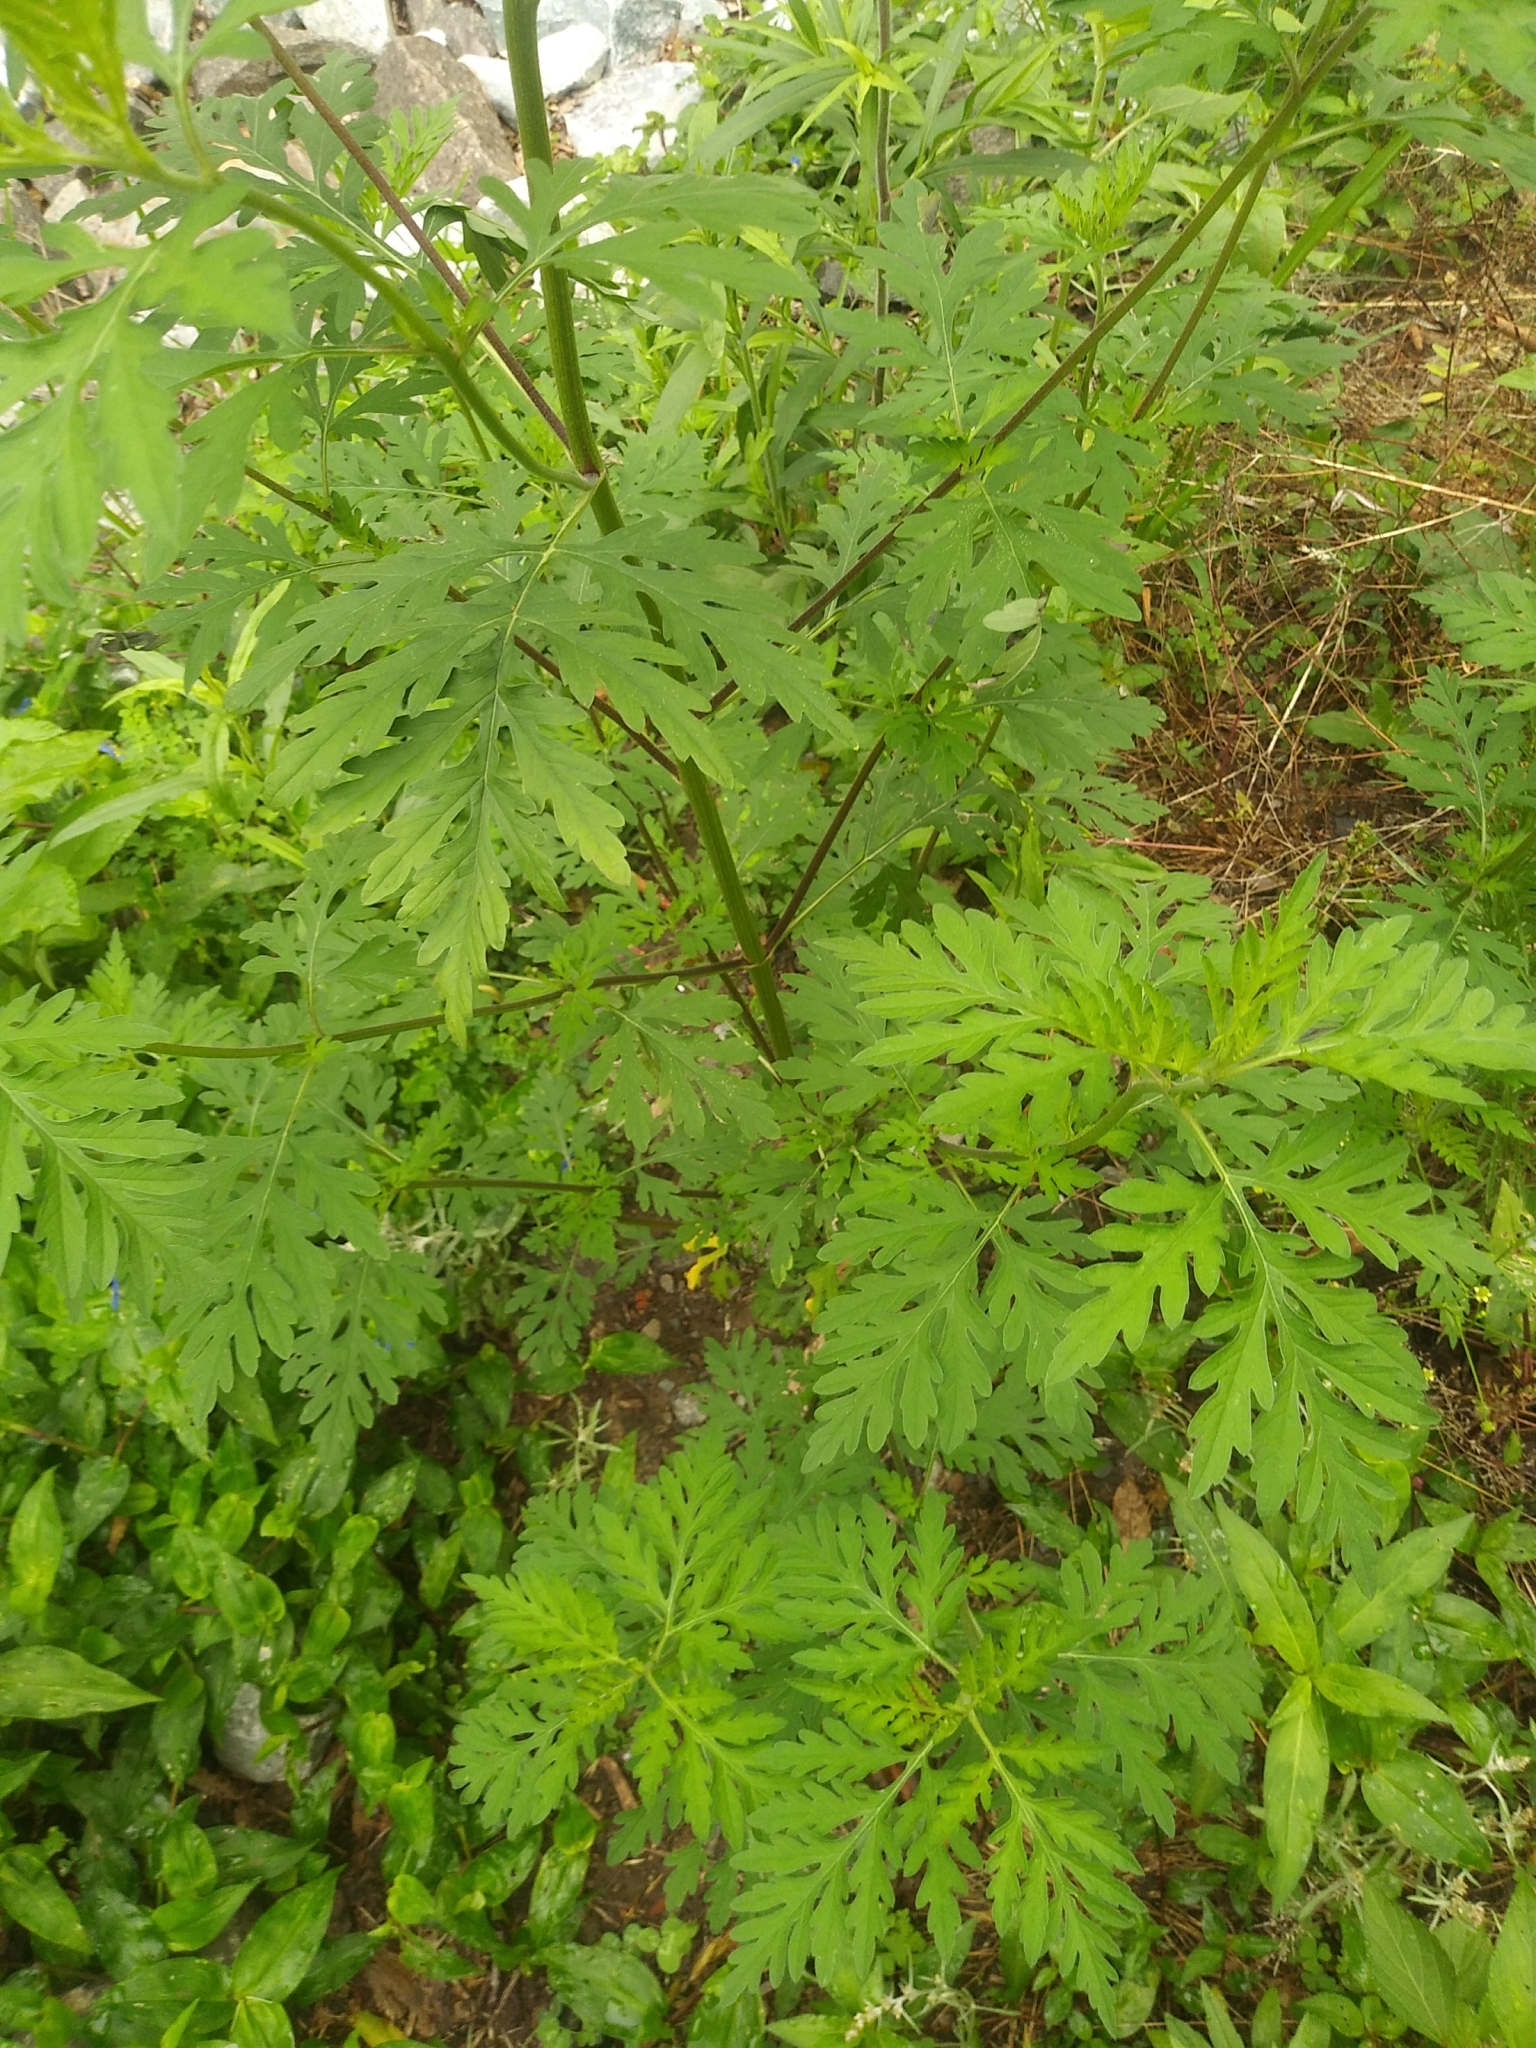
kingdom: Plantae
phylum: Tracheophyta
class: Magnoliopsida
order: Asterales
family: Asteraceae
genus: Ambrosia
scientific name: Ambrosia artemisiifolia
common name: Annual ragweed
